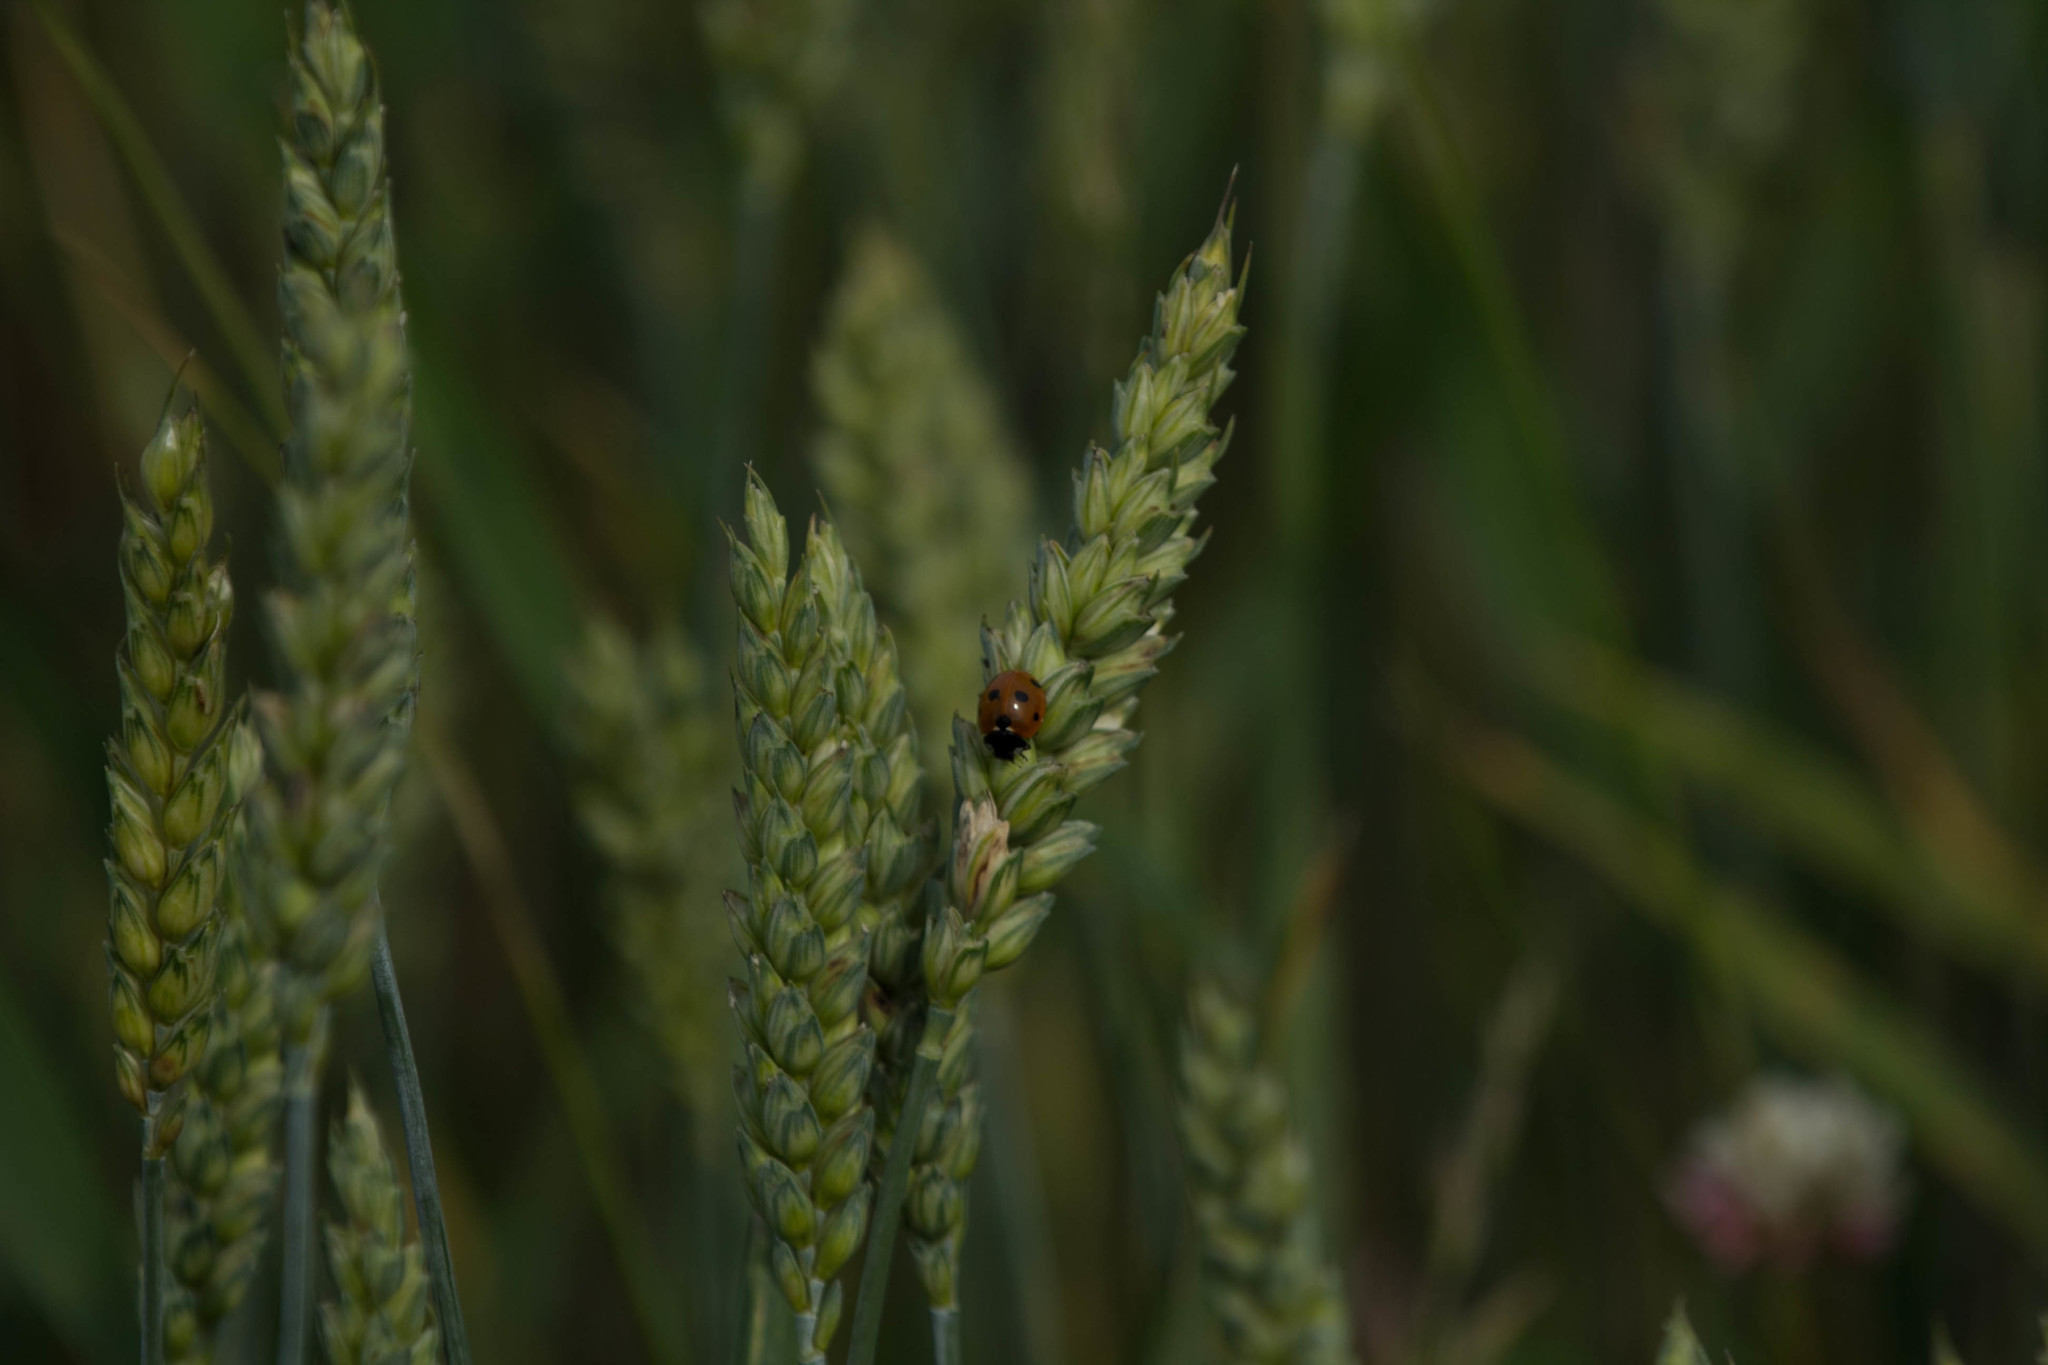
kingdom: Animalia
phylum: Arthropoda
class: Insecta
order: Coleoptera
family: Coccinellidae
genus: Coccinella
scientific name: Coccinella septempunctata
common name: Sevenspotted lady beetle
